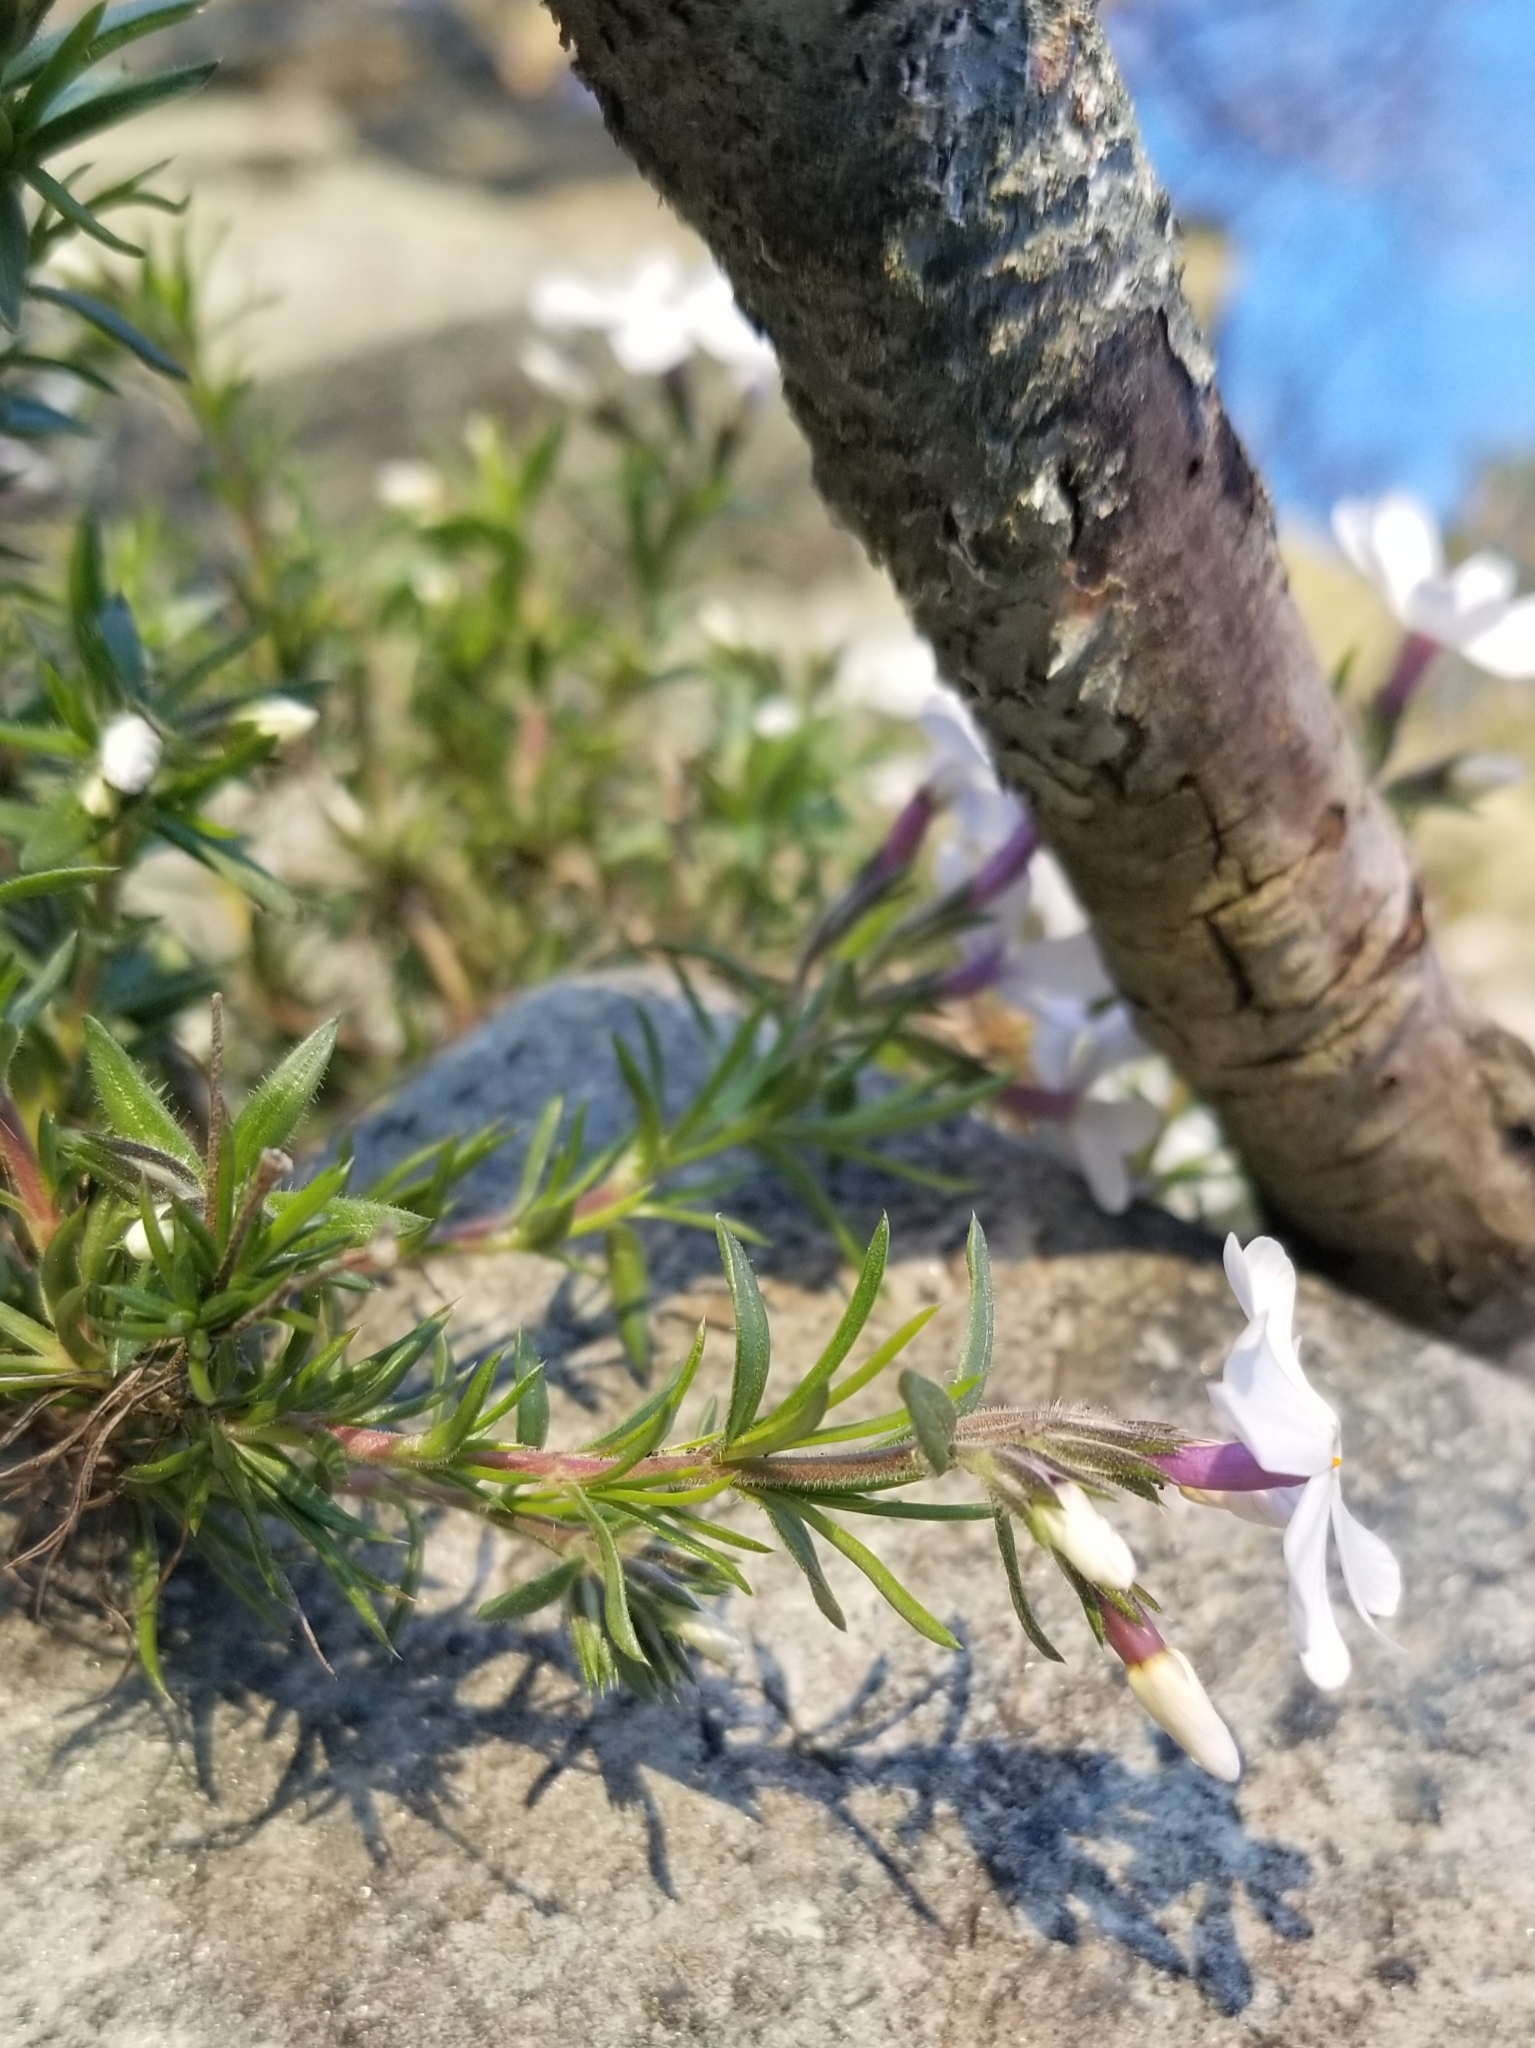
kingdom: Plantae
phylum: Tracheophyta
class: Magnoliopsida
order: Ericales
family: Polemoniaceae
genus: Phlox
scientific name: Phlox subulata
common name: Moss phlox
